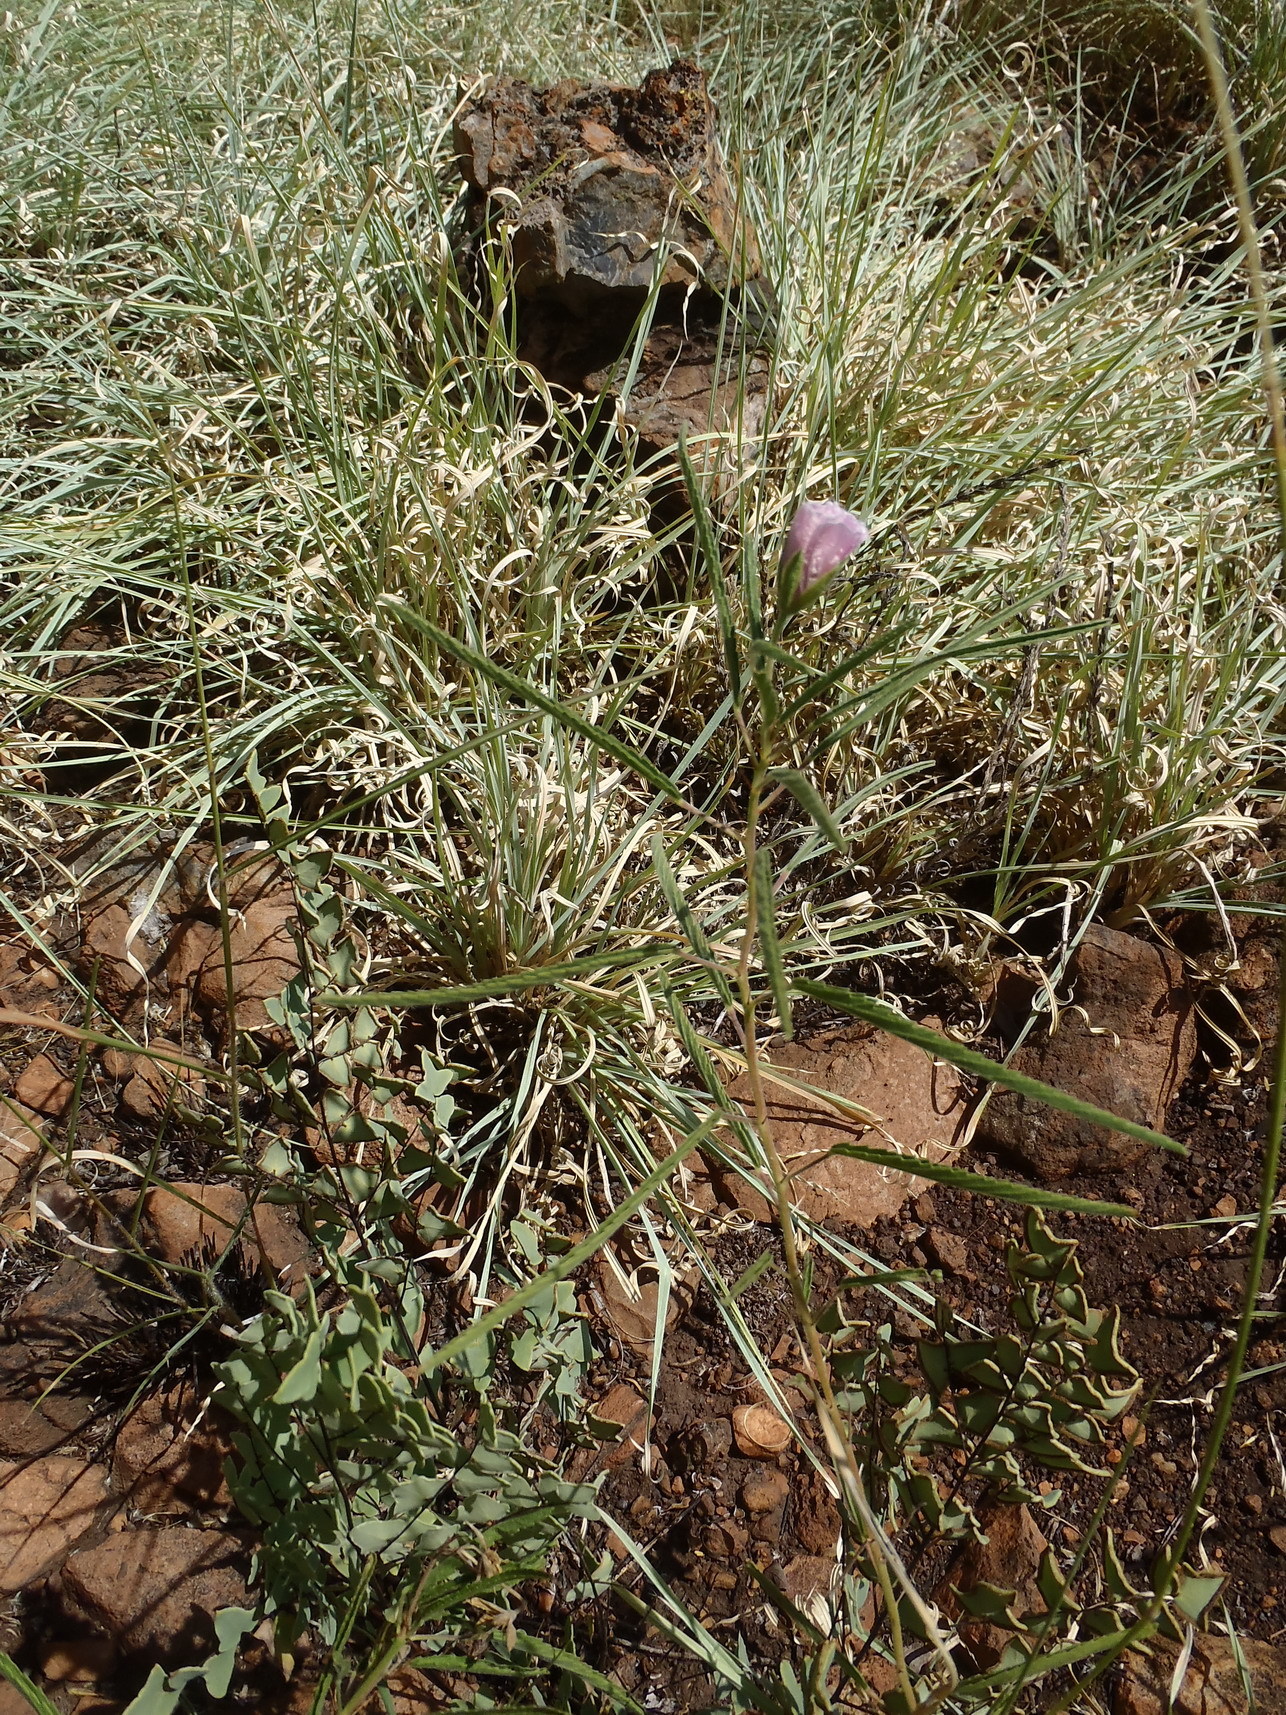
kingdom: Plantae
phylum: Tracheophyta
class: Magnoliopsida
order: Geraniales
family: Geraniaceae
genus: Monsonia
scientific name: Monsonia biflora
